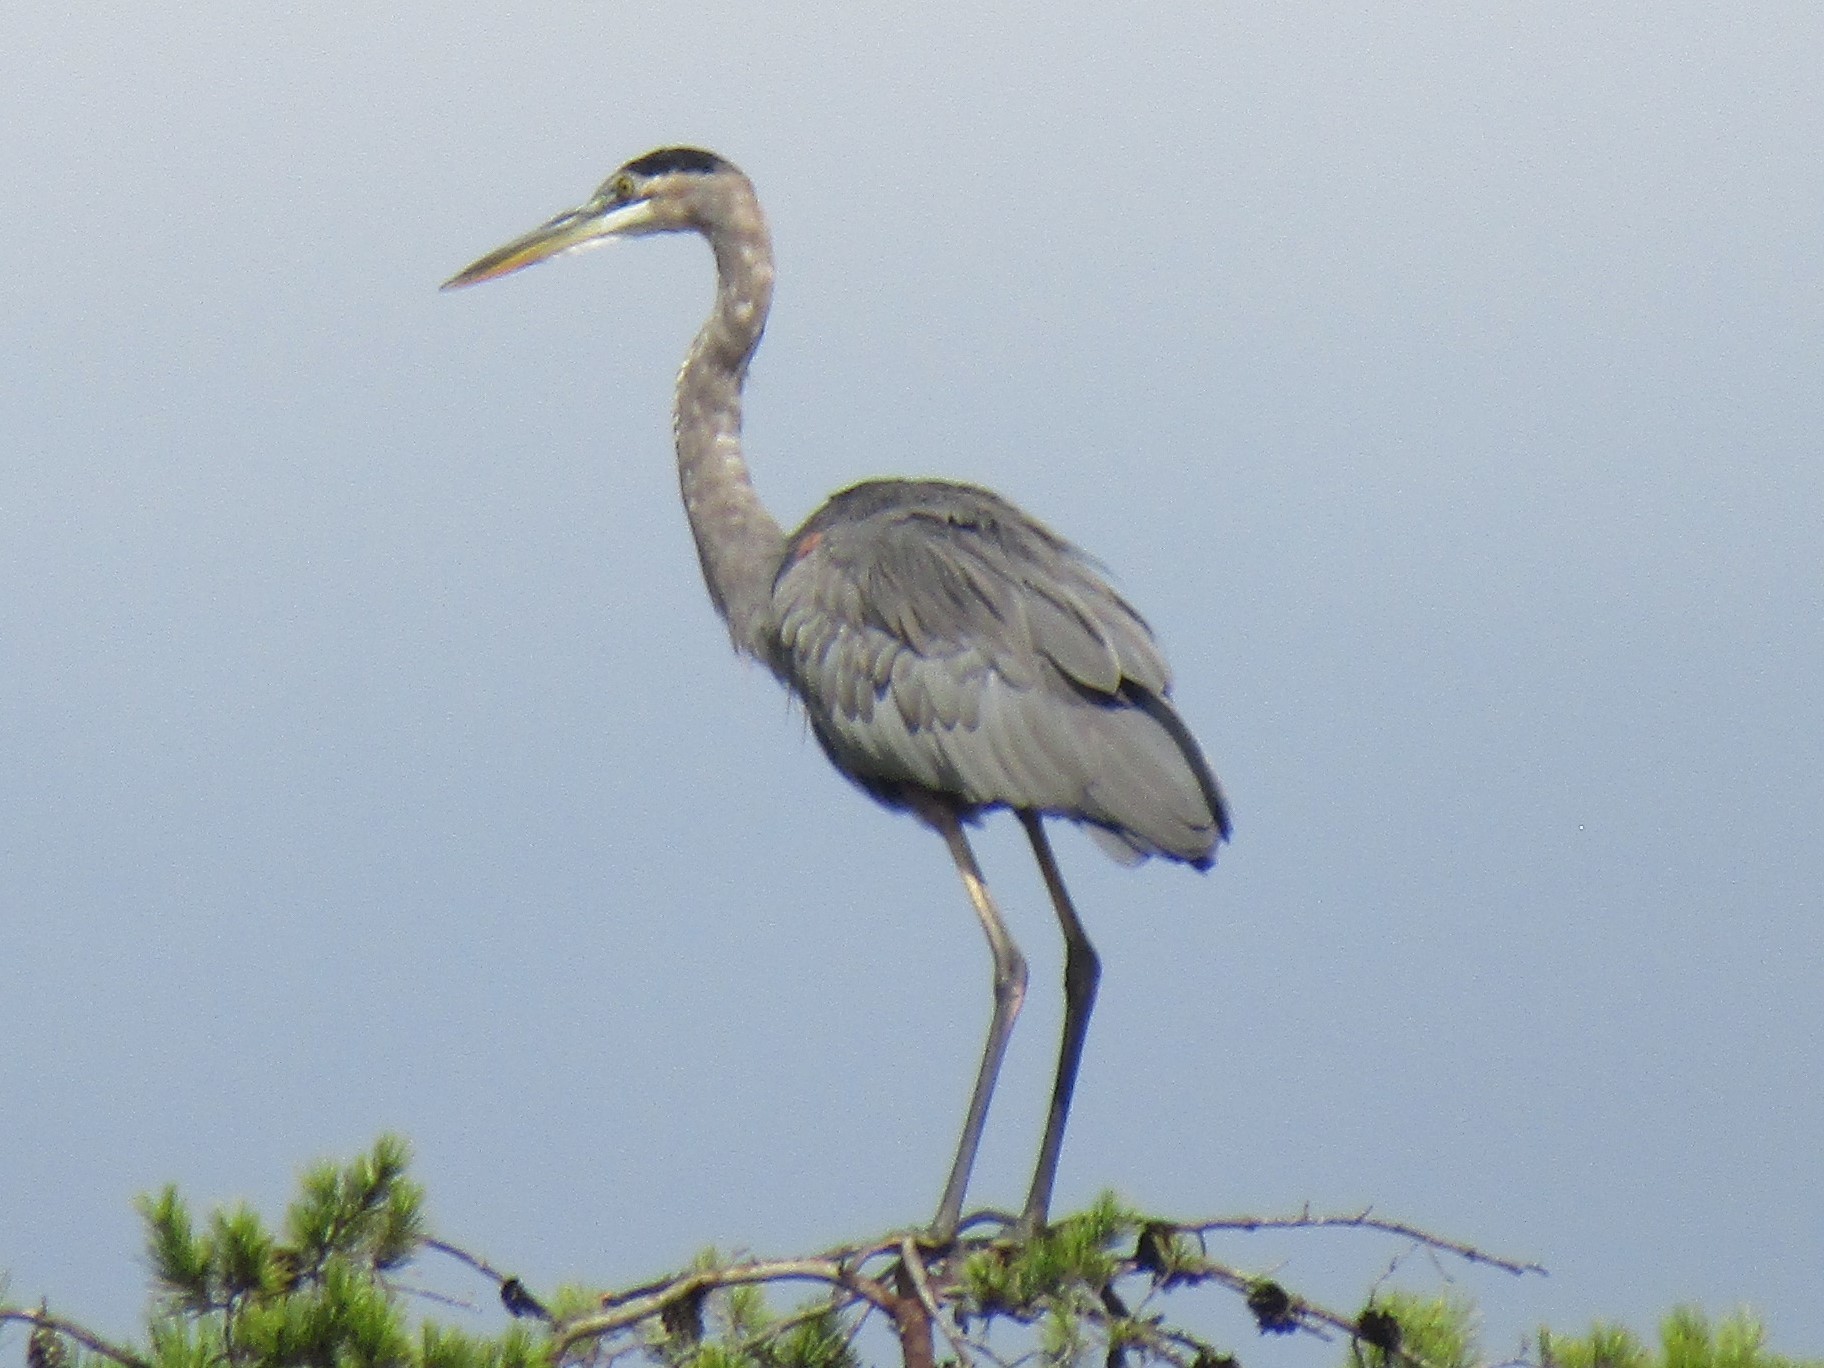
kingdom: Animalia
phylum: Chordata
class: Aves
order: Pelecaniformes
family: Ardeidae
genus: Ardea
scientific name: Ardea herodias
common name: Great blue heron
